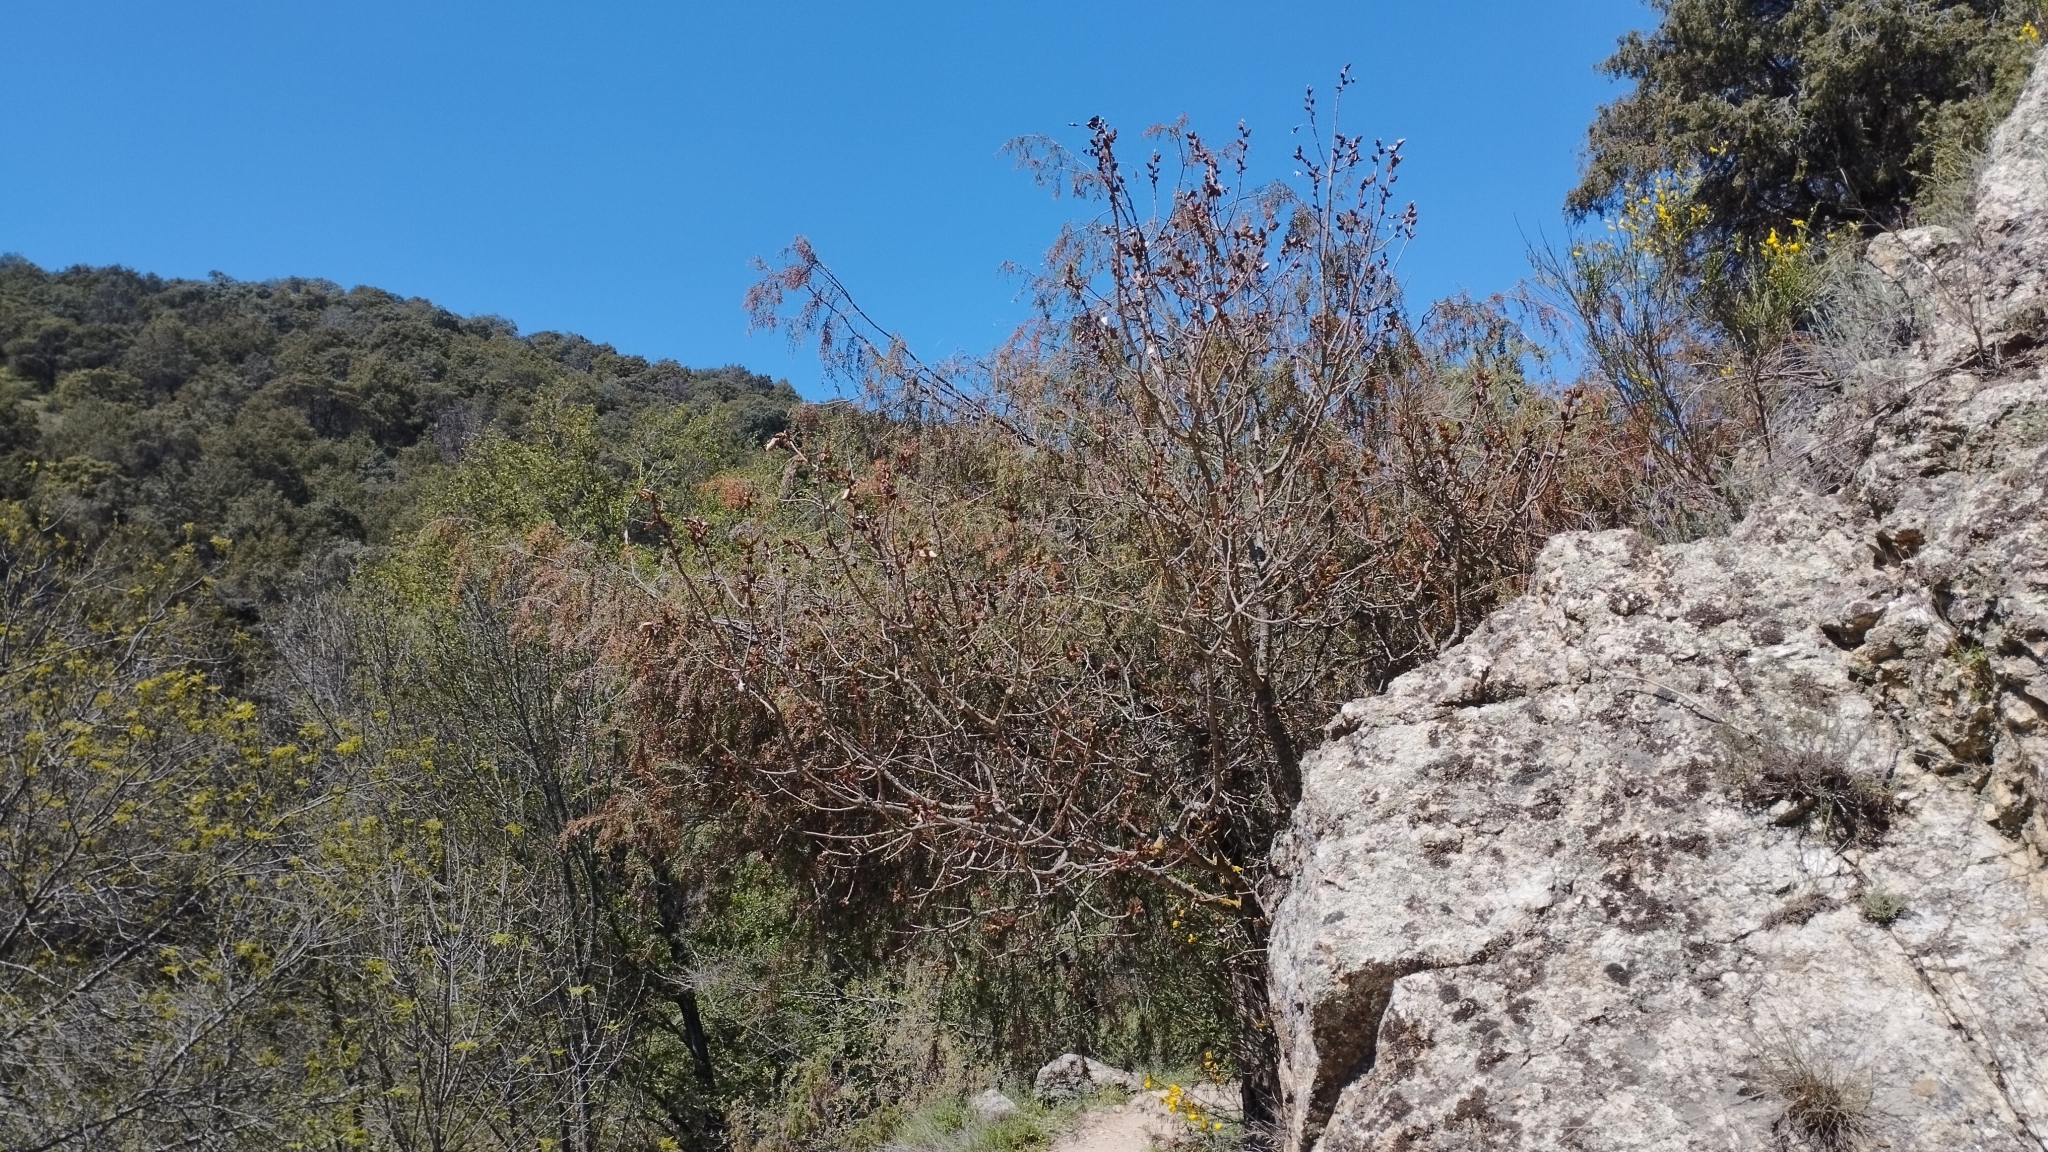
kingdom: Plantae
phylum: Tracheophyta
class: Magnoliopsida
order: Sapindales
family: Anacardiaceae
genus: Pistacia
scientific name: Pistacia terebinthus
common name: Terebinth
